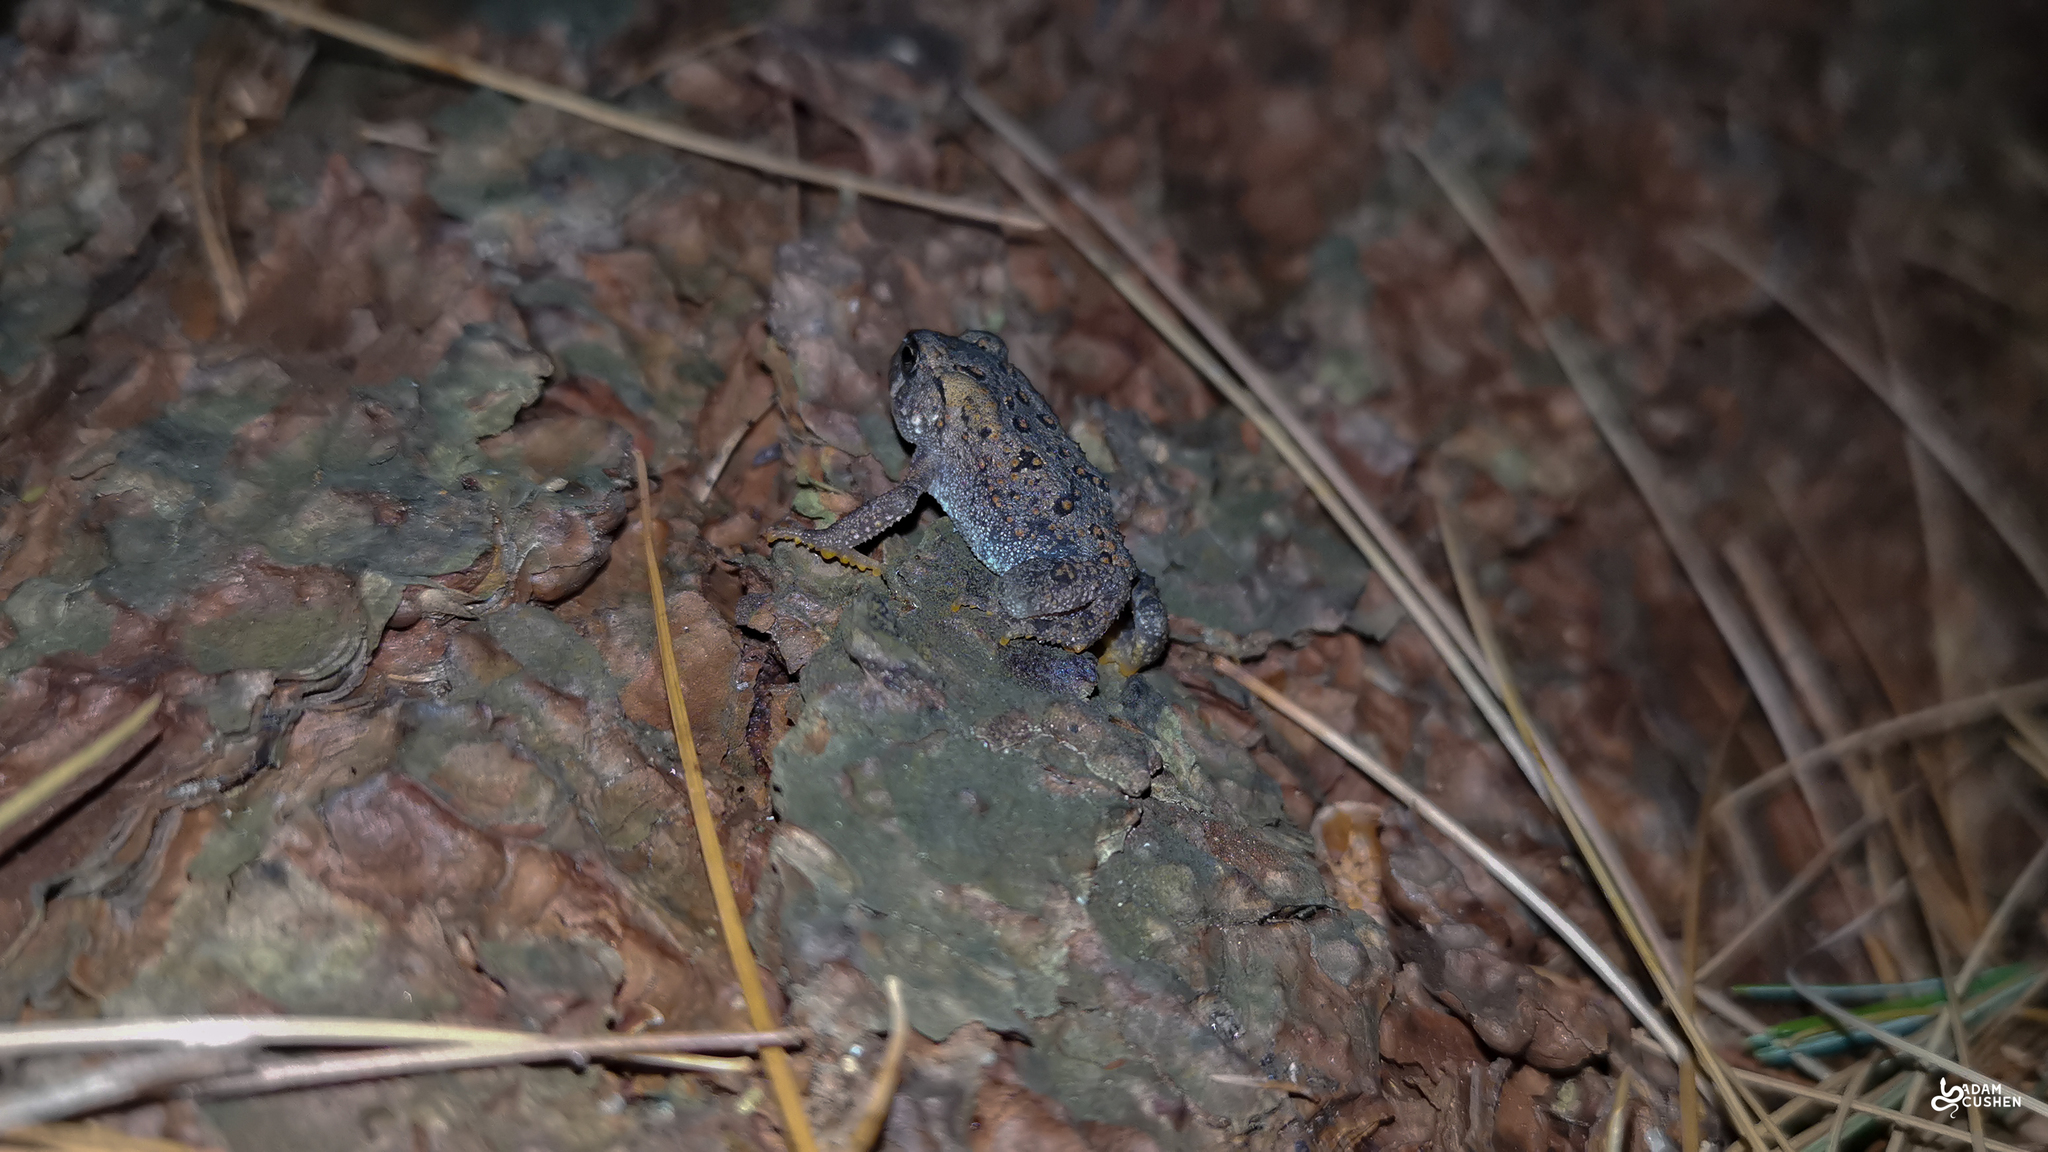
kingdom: Animalia
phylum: Chordata
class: Amphibia
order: Anura
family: Bufonidae
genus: Anaxyrus
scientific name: Anaxyrus americanus
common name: American toad
